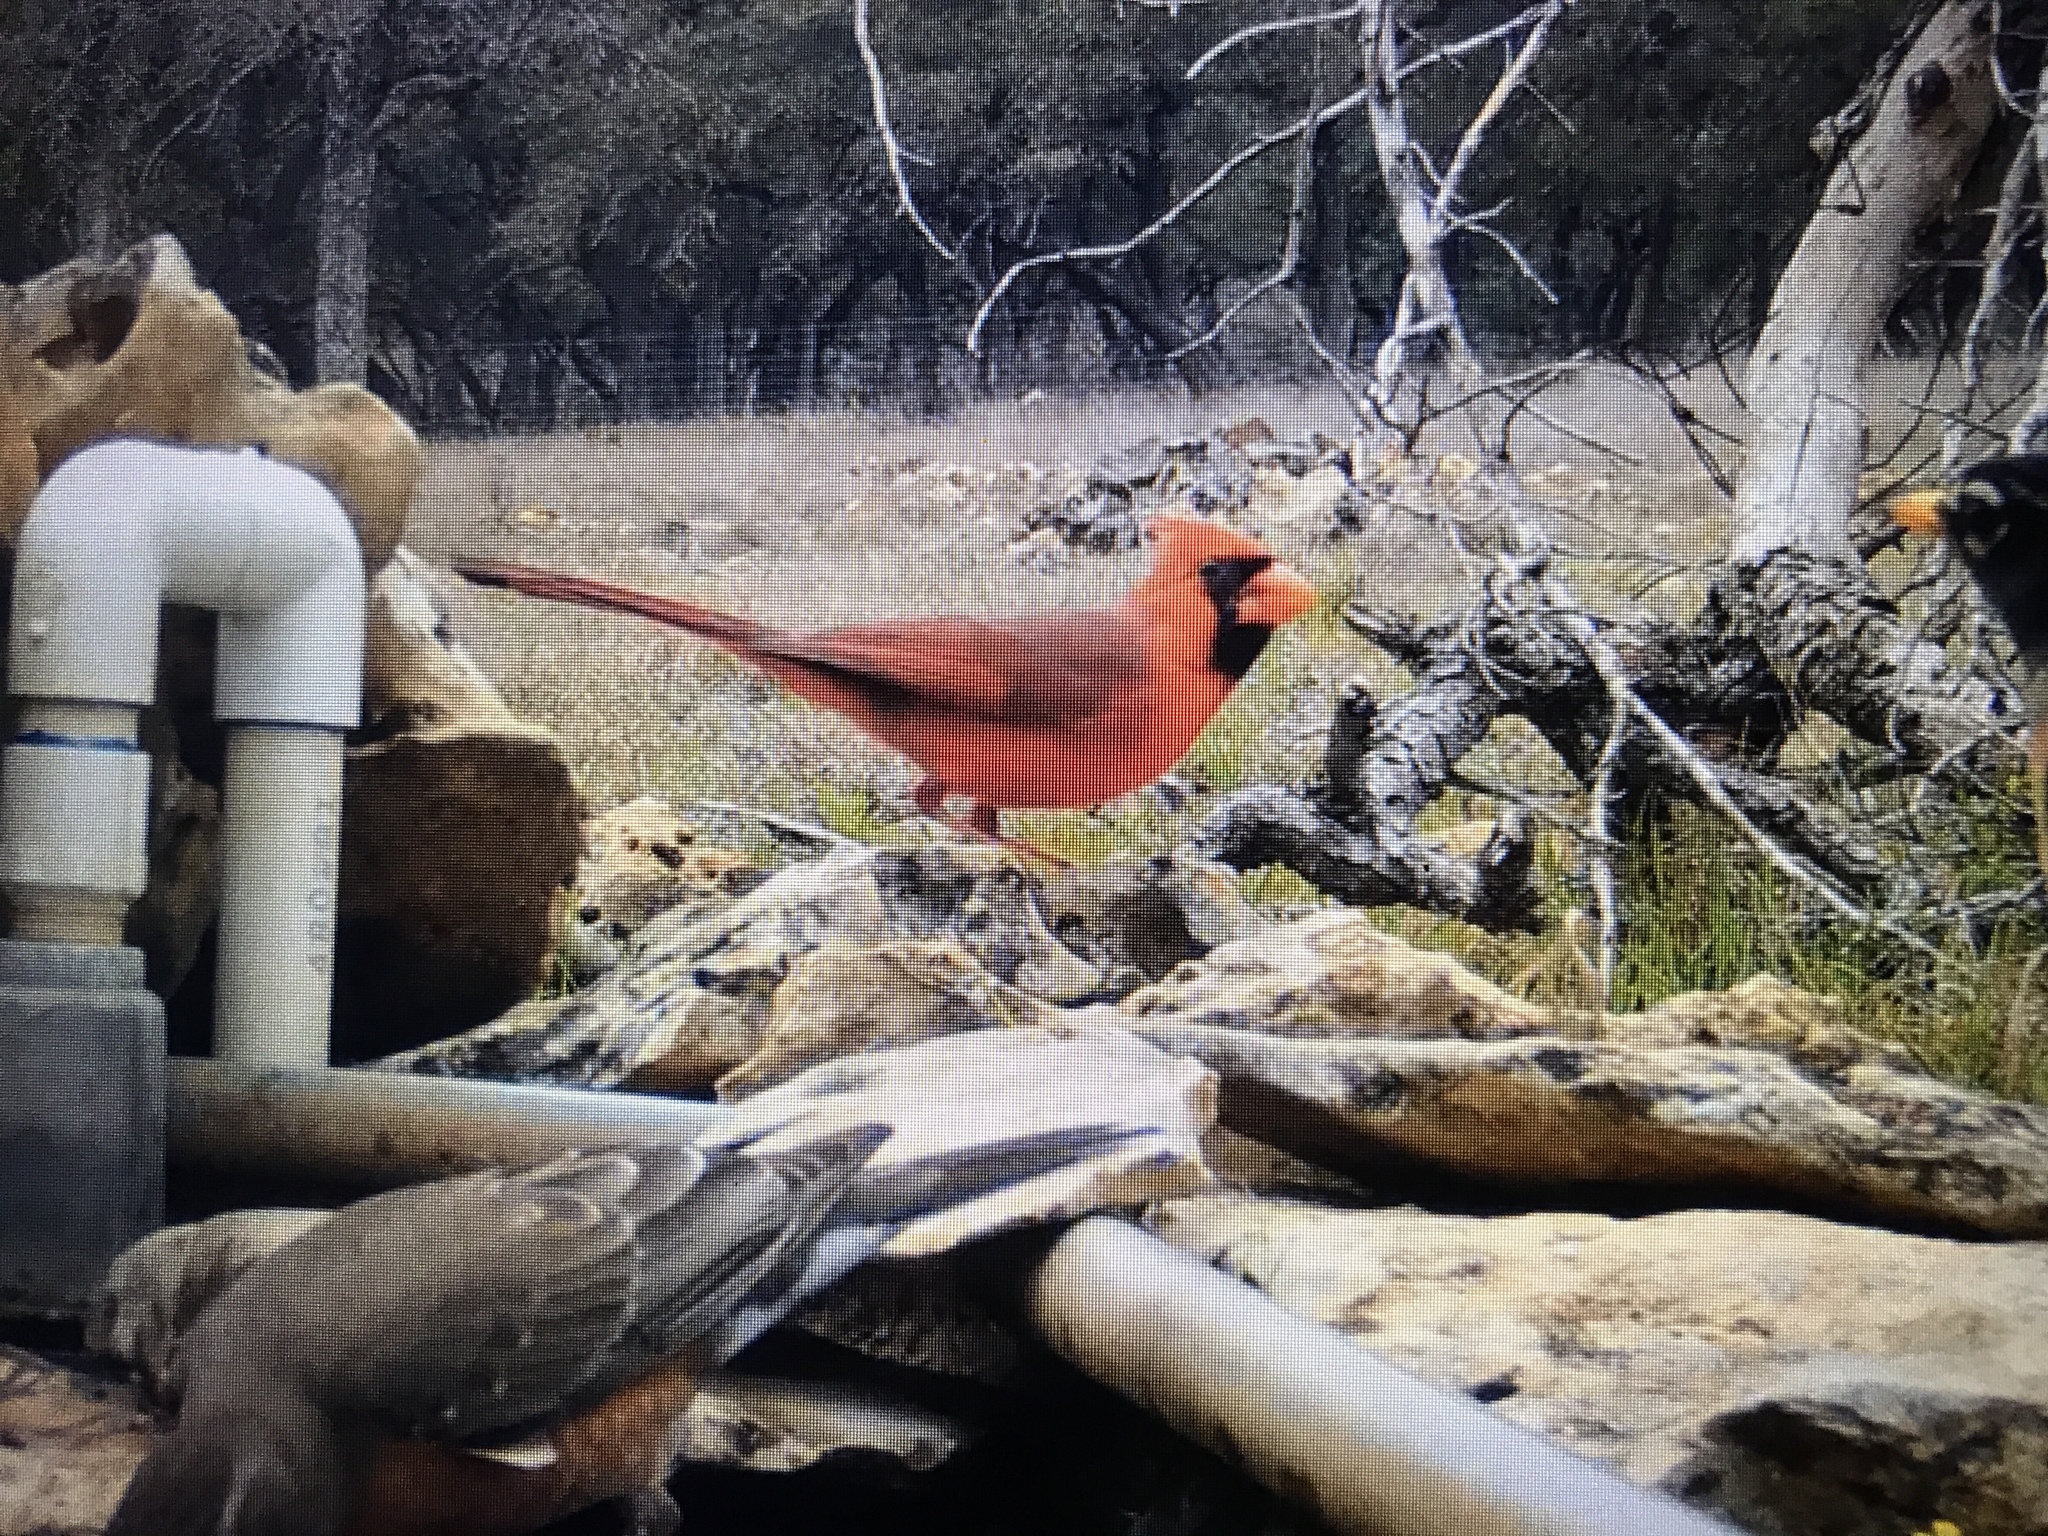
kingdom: Animalia
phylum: Chordata
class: Aves
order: Passeriformes
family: Cardinalidae
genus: Cardinalis
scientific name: Cardinalis cardinalis
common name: Northern cardinal
